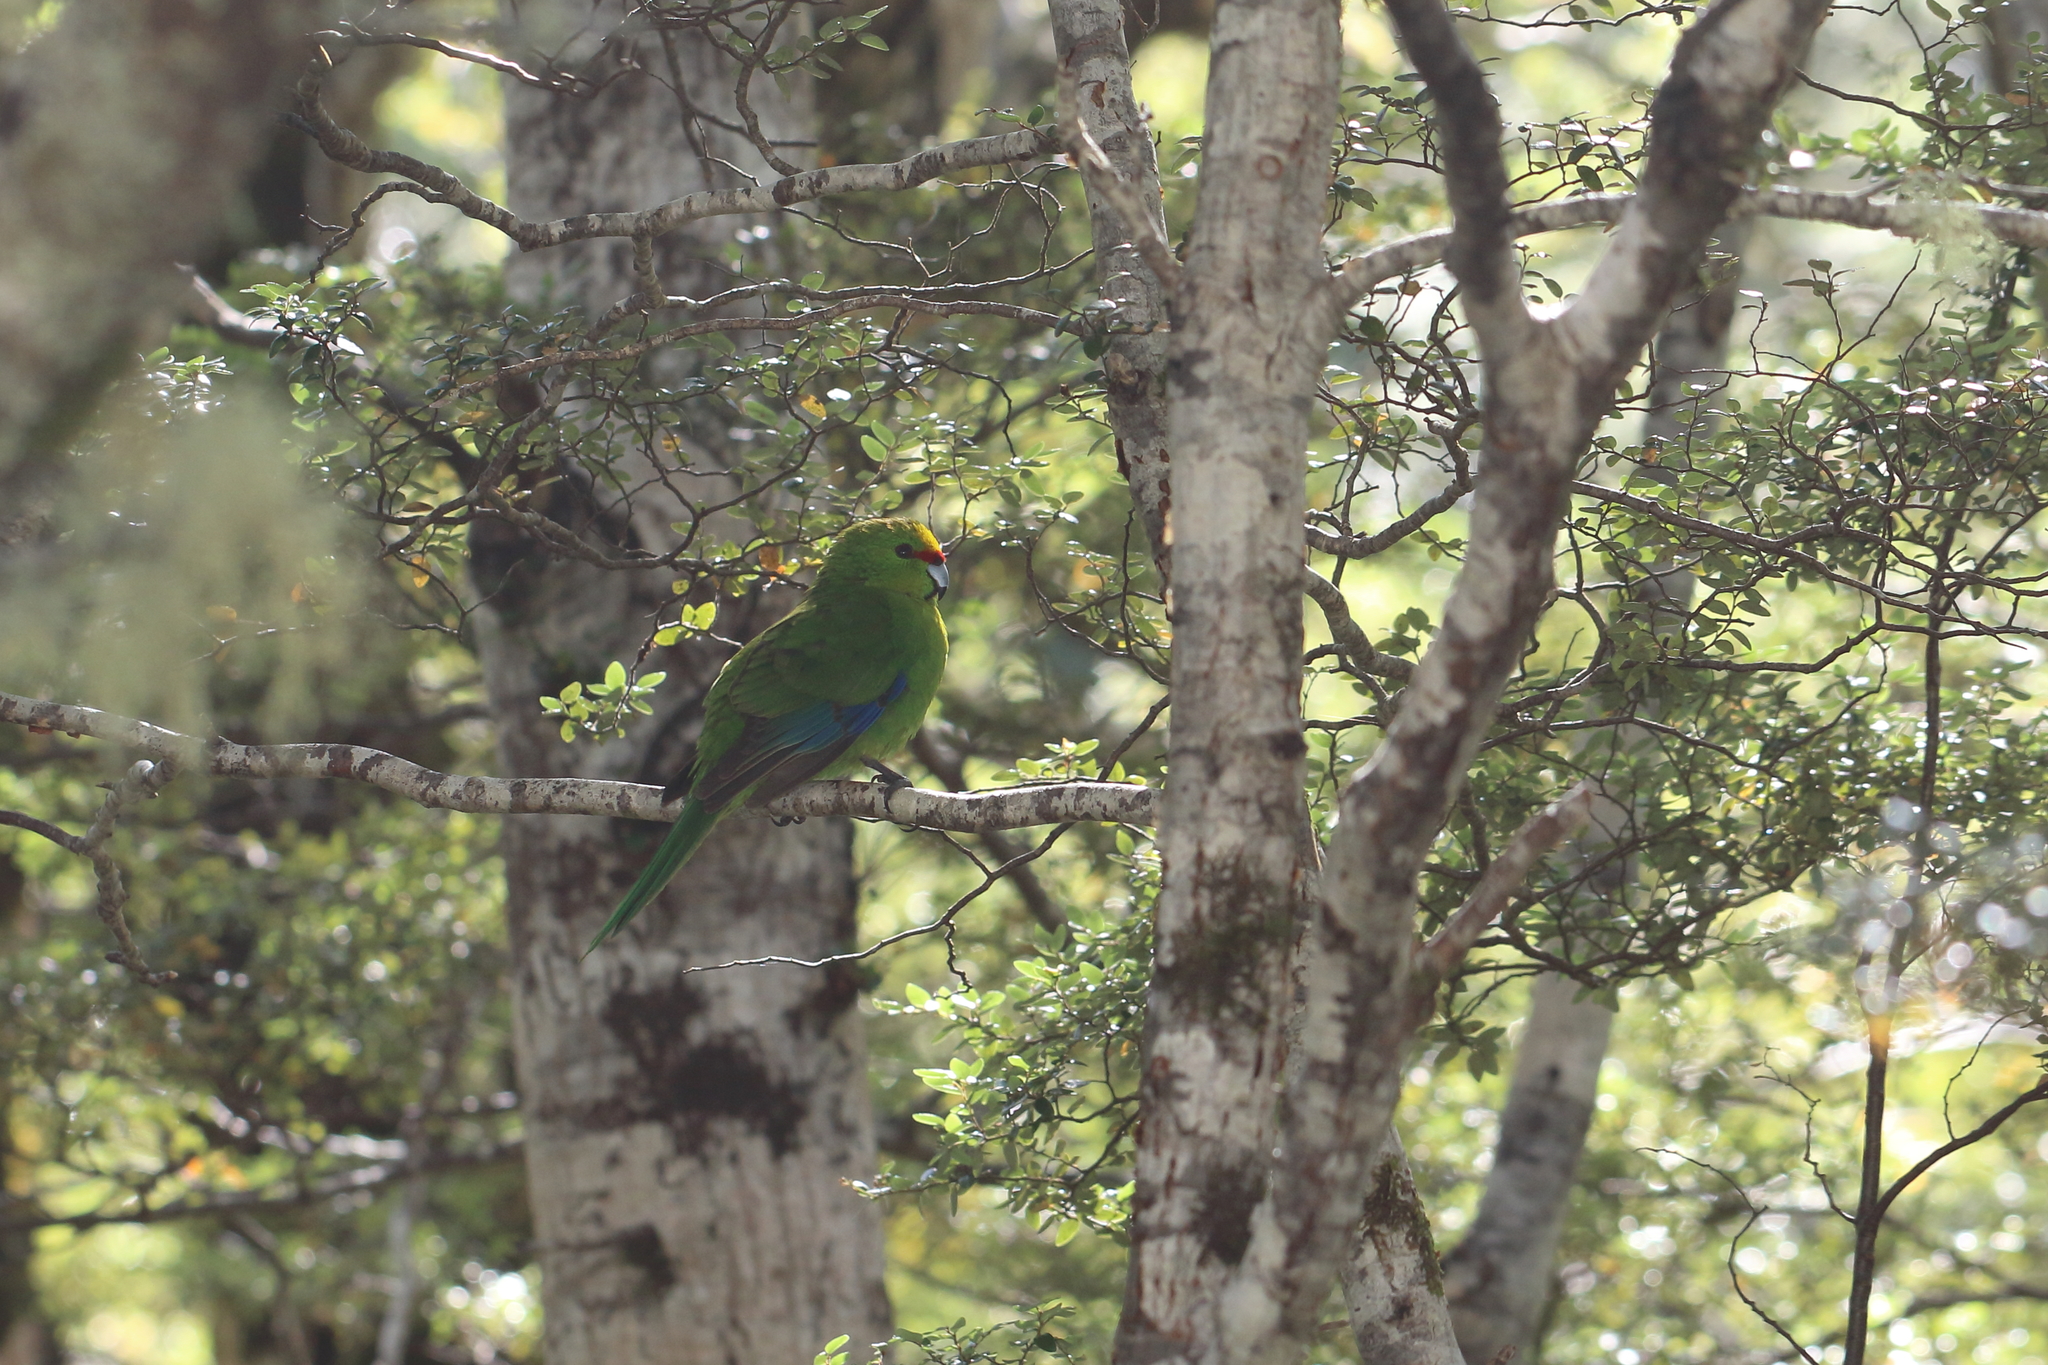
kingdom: Animalia
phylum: Chordata
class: Aves
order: Psittaciformes
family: Psittacidae
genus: Cyanoramphus
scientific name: Cyanoramphus auriceps
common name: Yellow-crowned parakeet
